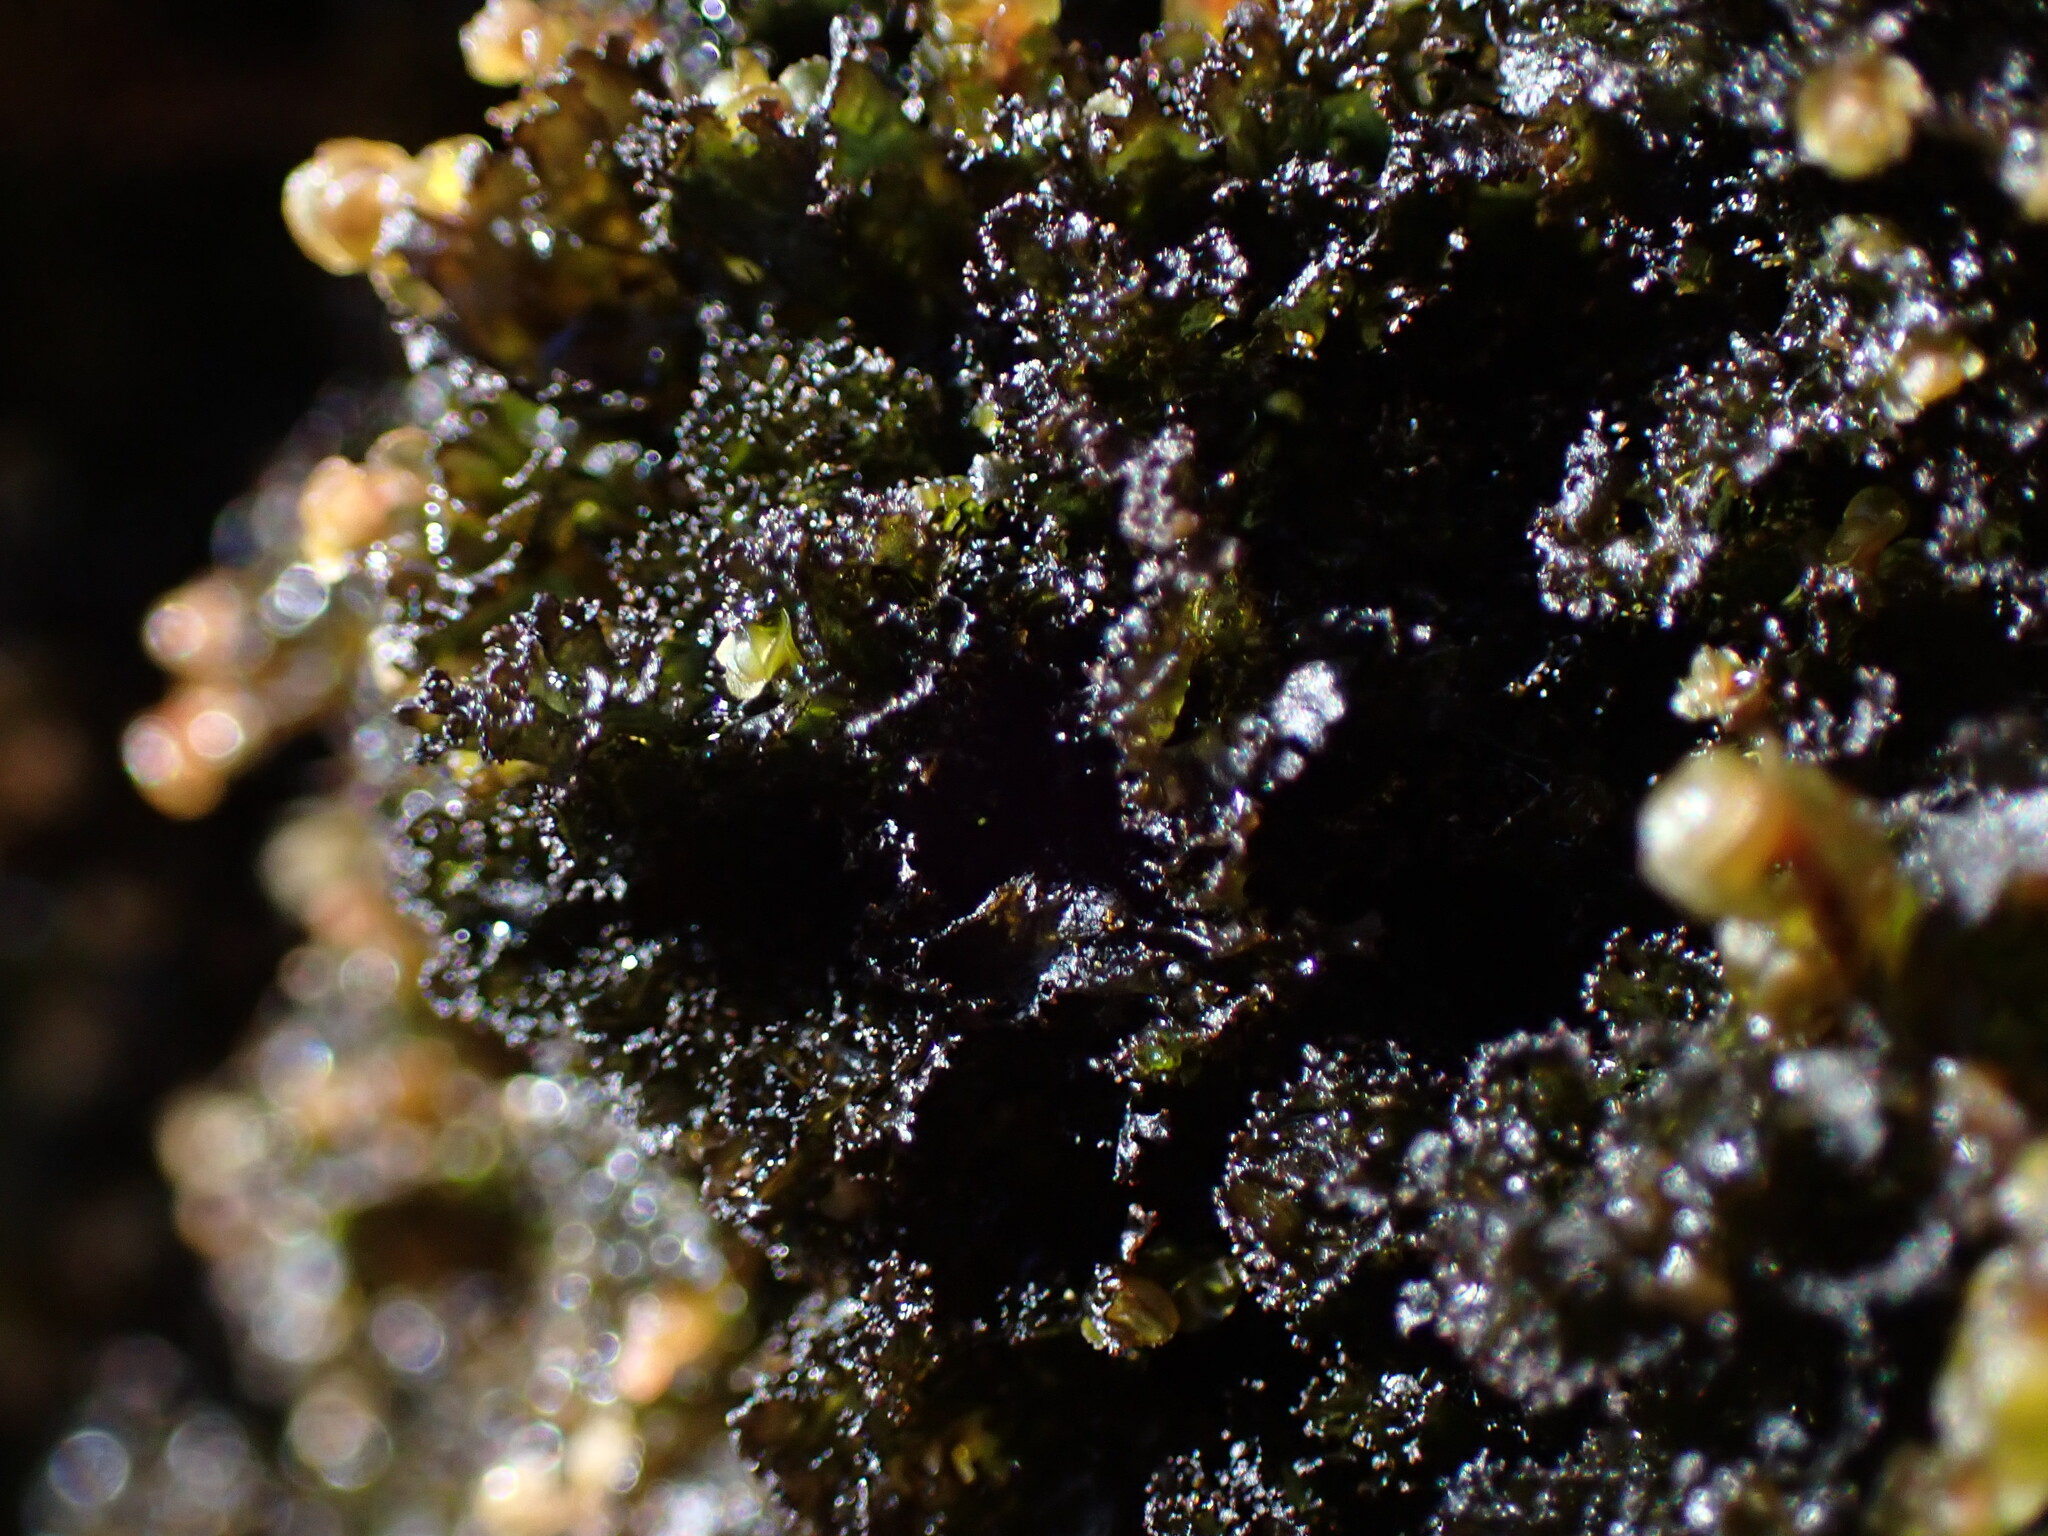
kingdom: Fungi
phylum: Ascomycota
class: Lecanoromycetes
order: Peltigerales
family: Collemataceae
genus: Scytinium
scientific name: Scytinium lichenoides
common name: Tattered jellyskin lichen
